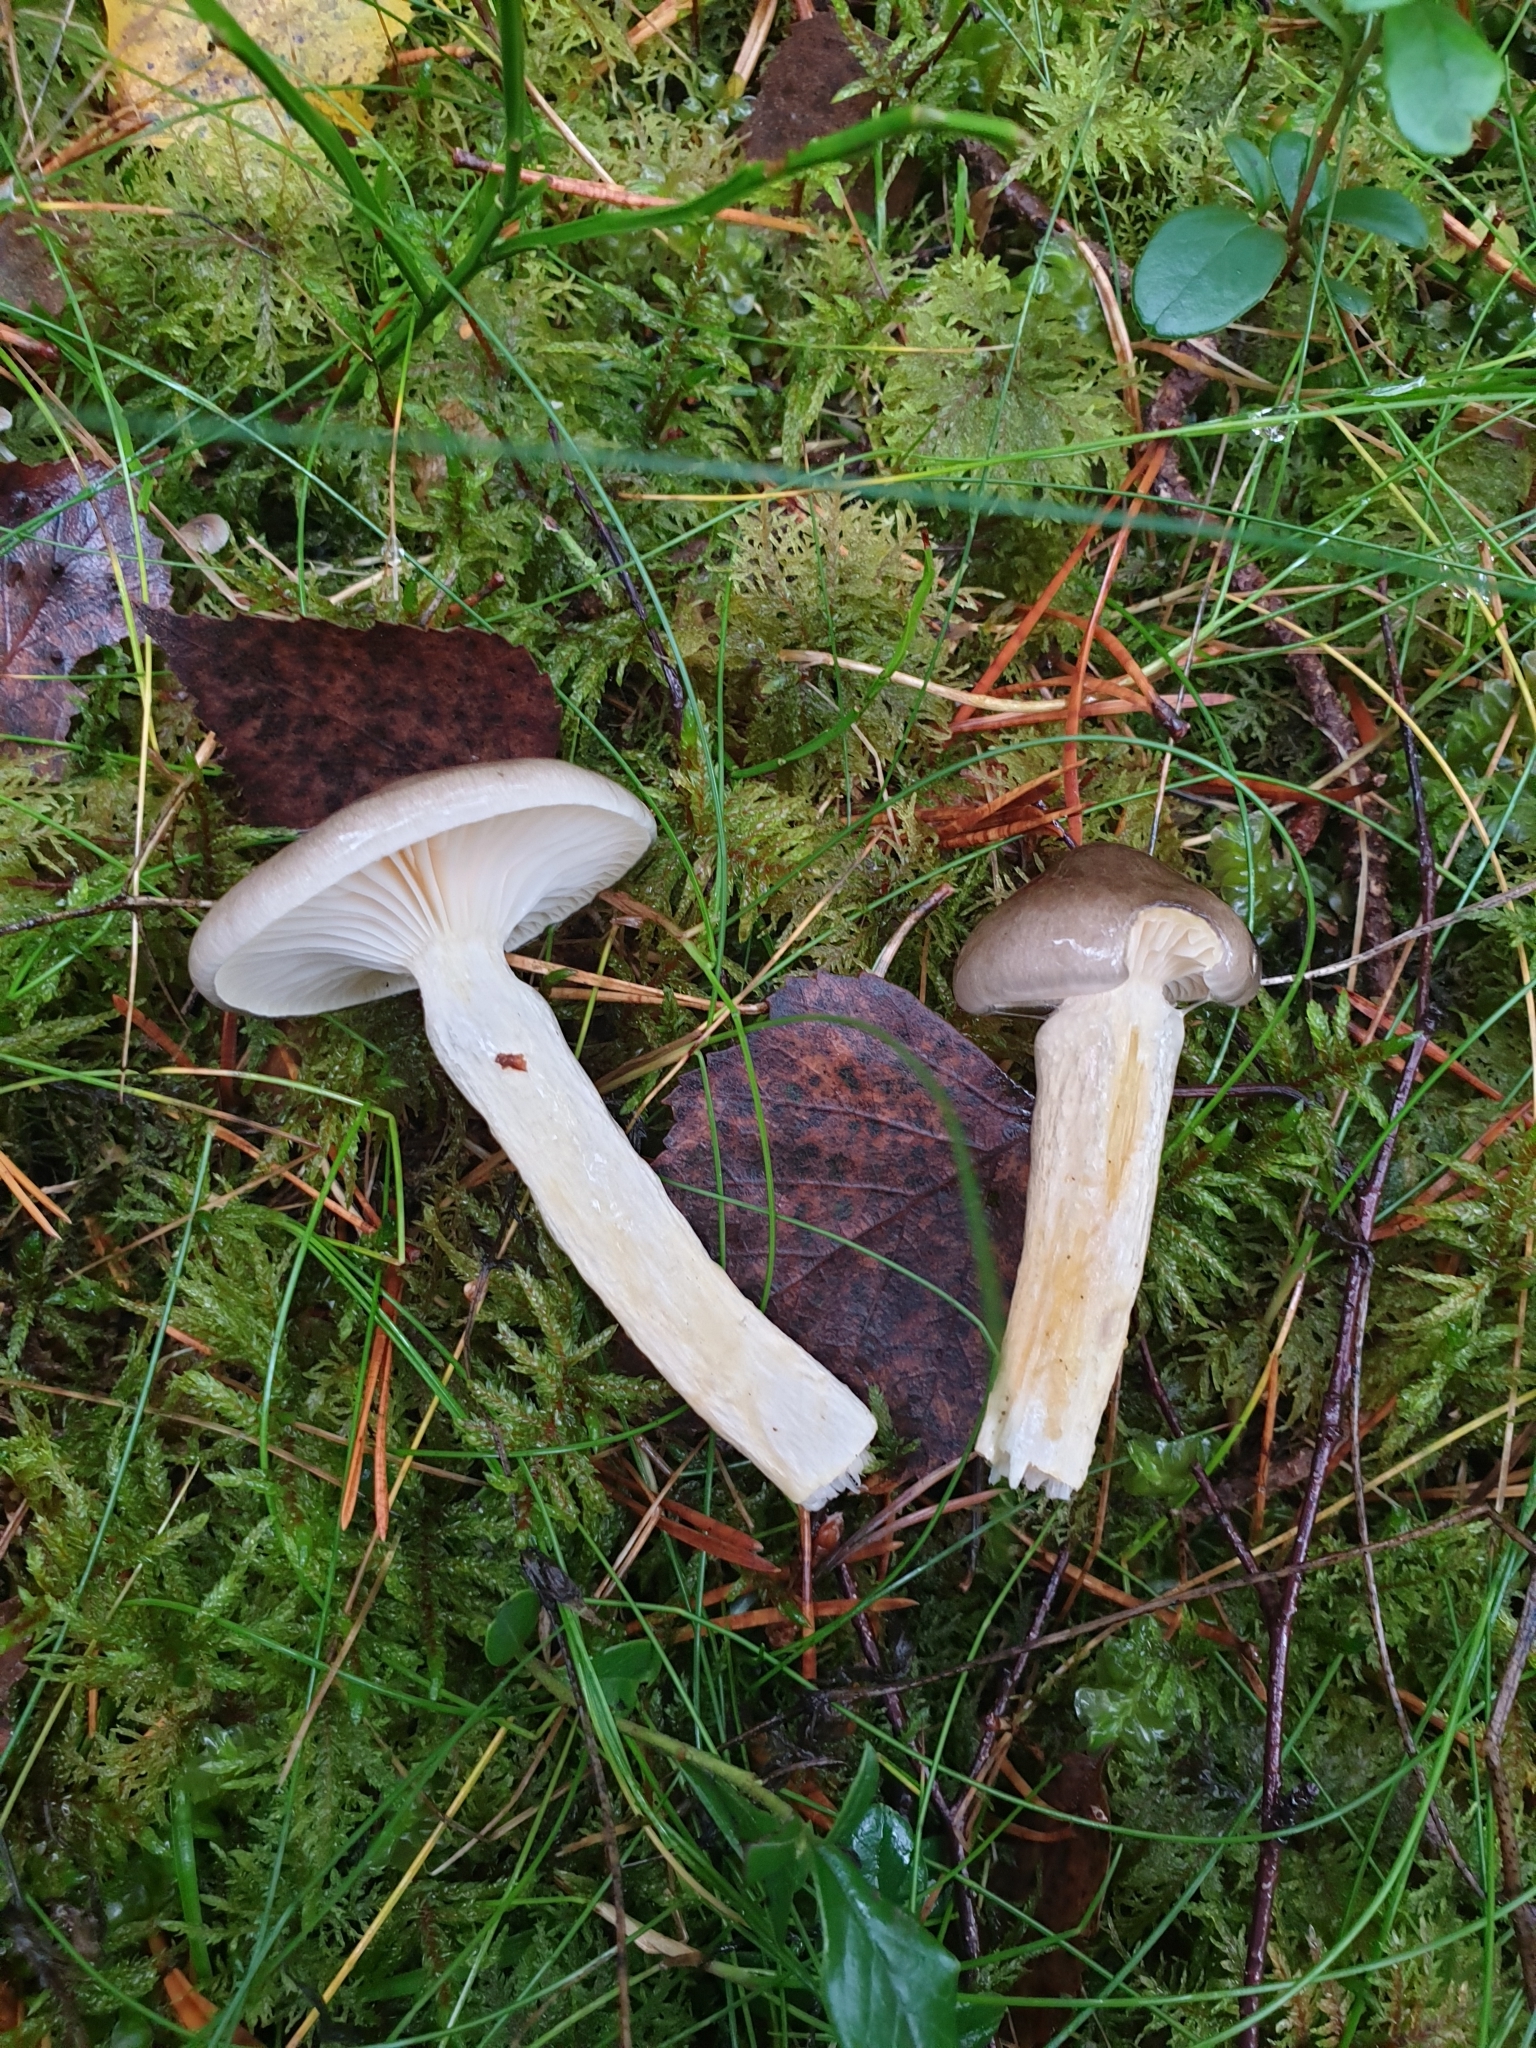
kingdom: Fungi
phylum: Basidiomycota
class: Agaricomycetes
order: Agaricales
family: Hygrophoraceae
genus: Hygrophorus
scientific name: Hygrophorus hypothejus
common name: Herald of winter
